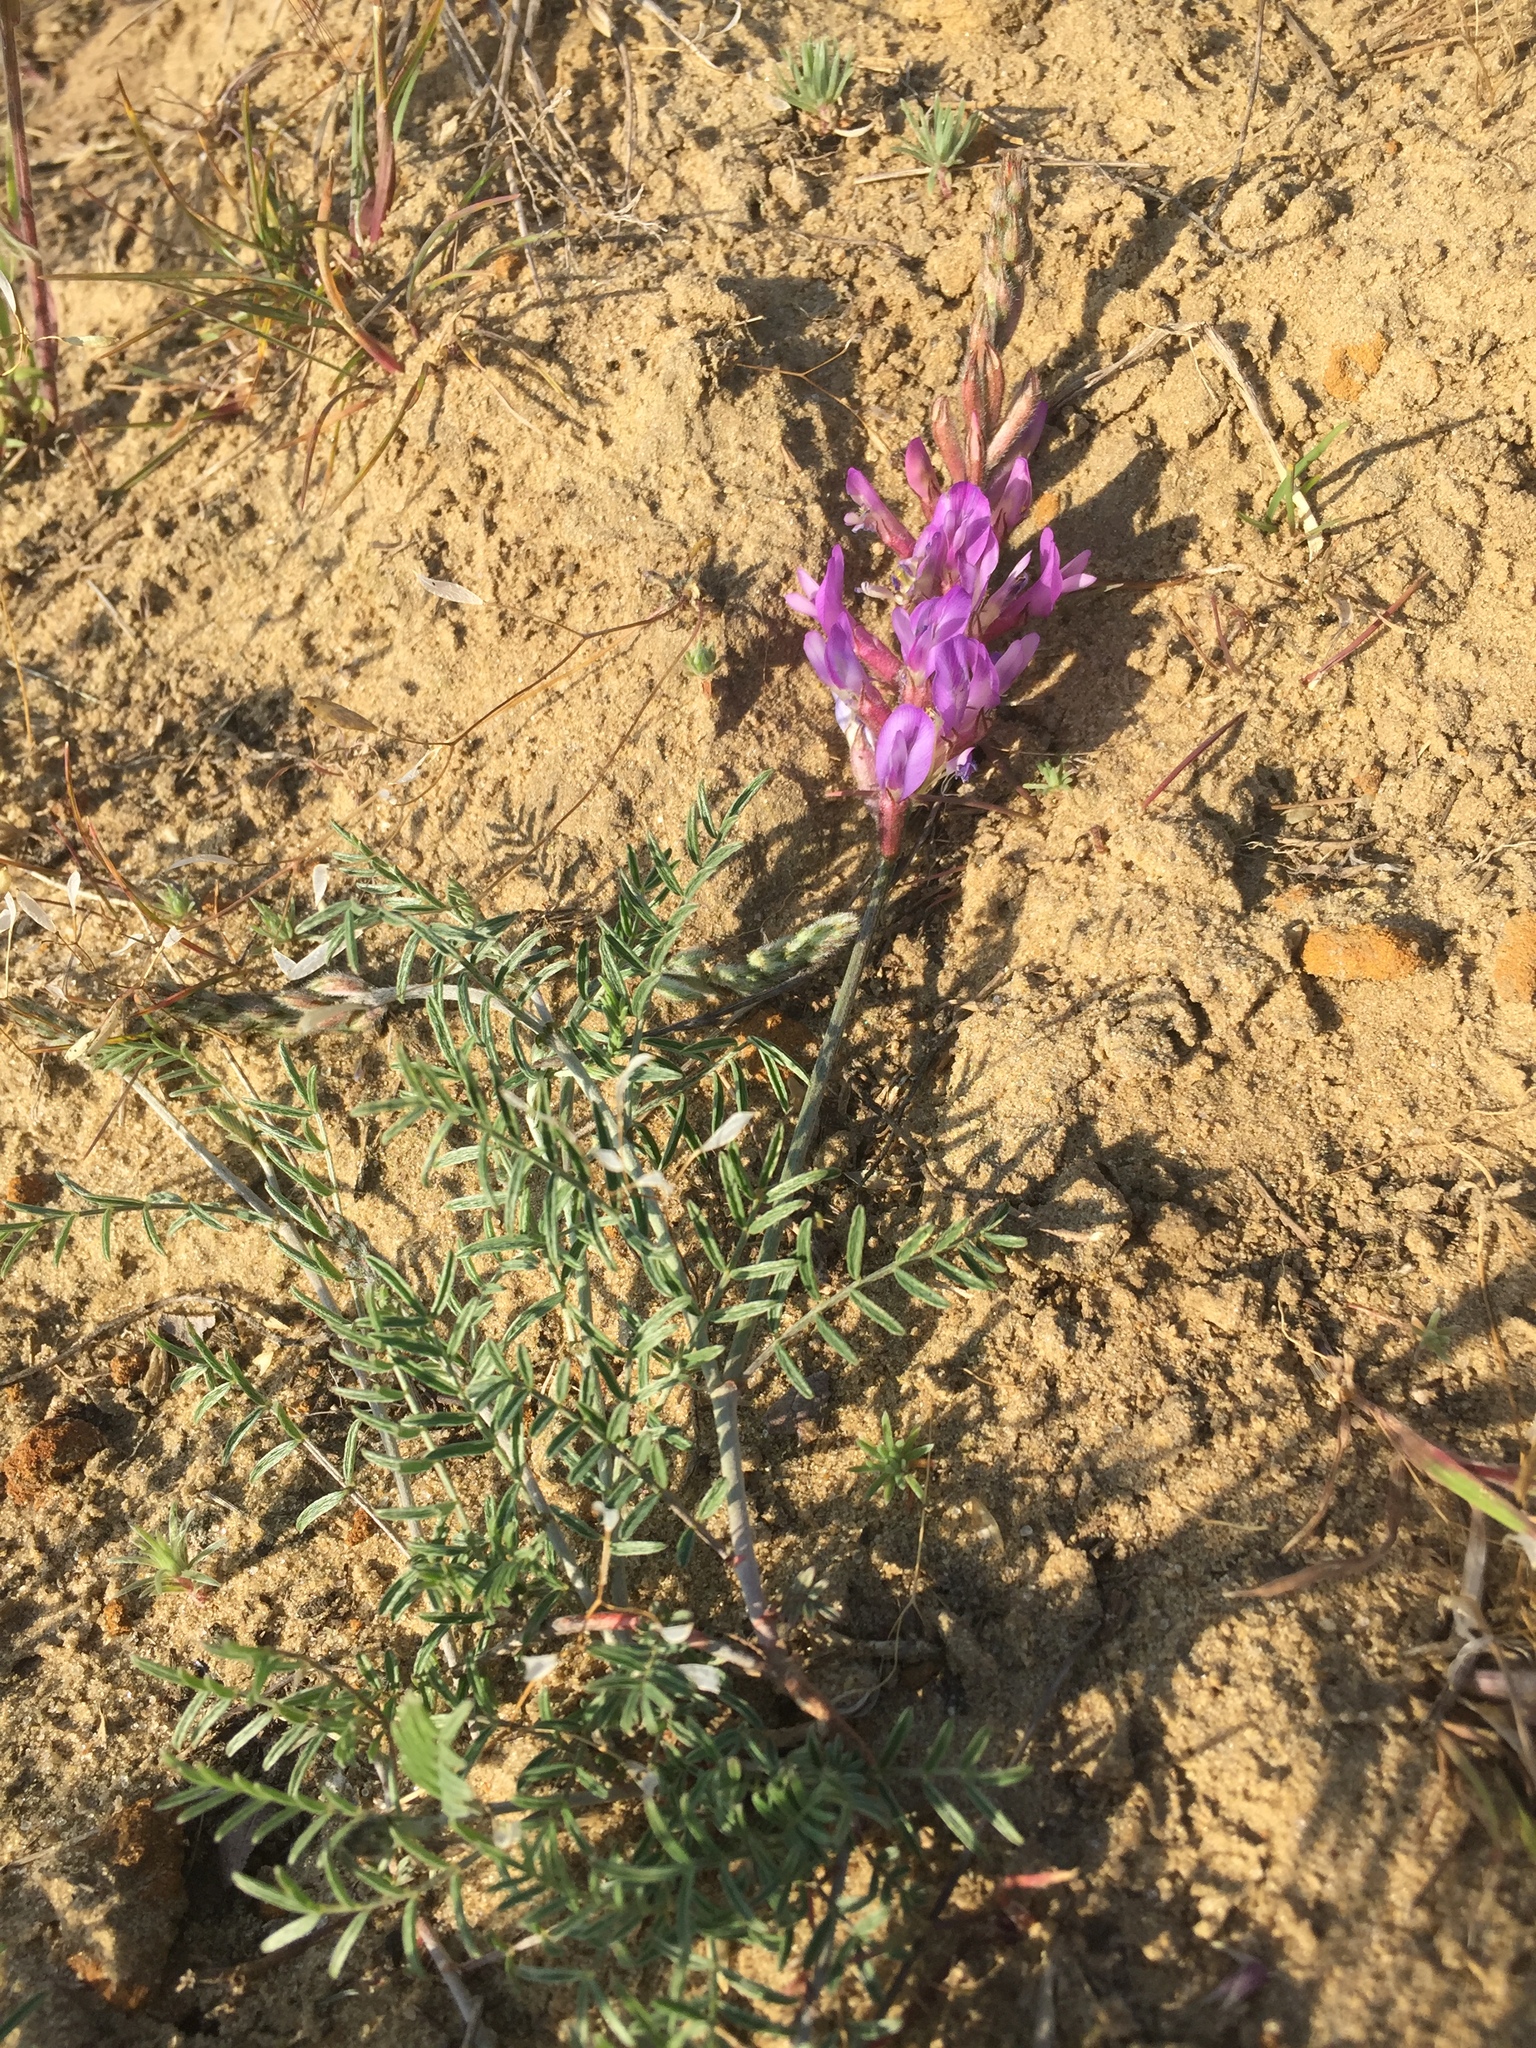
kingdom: Plantae
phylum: Tracheophyta
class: Magnoliopsida
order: Fabales
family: Fabaceae
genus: Astragalus
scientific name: Astragalus varius
